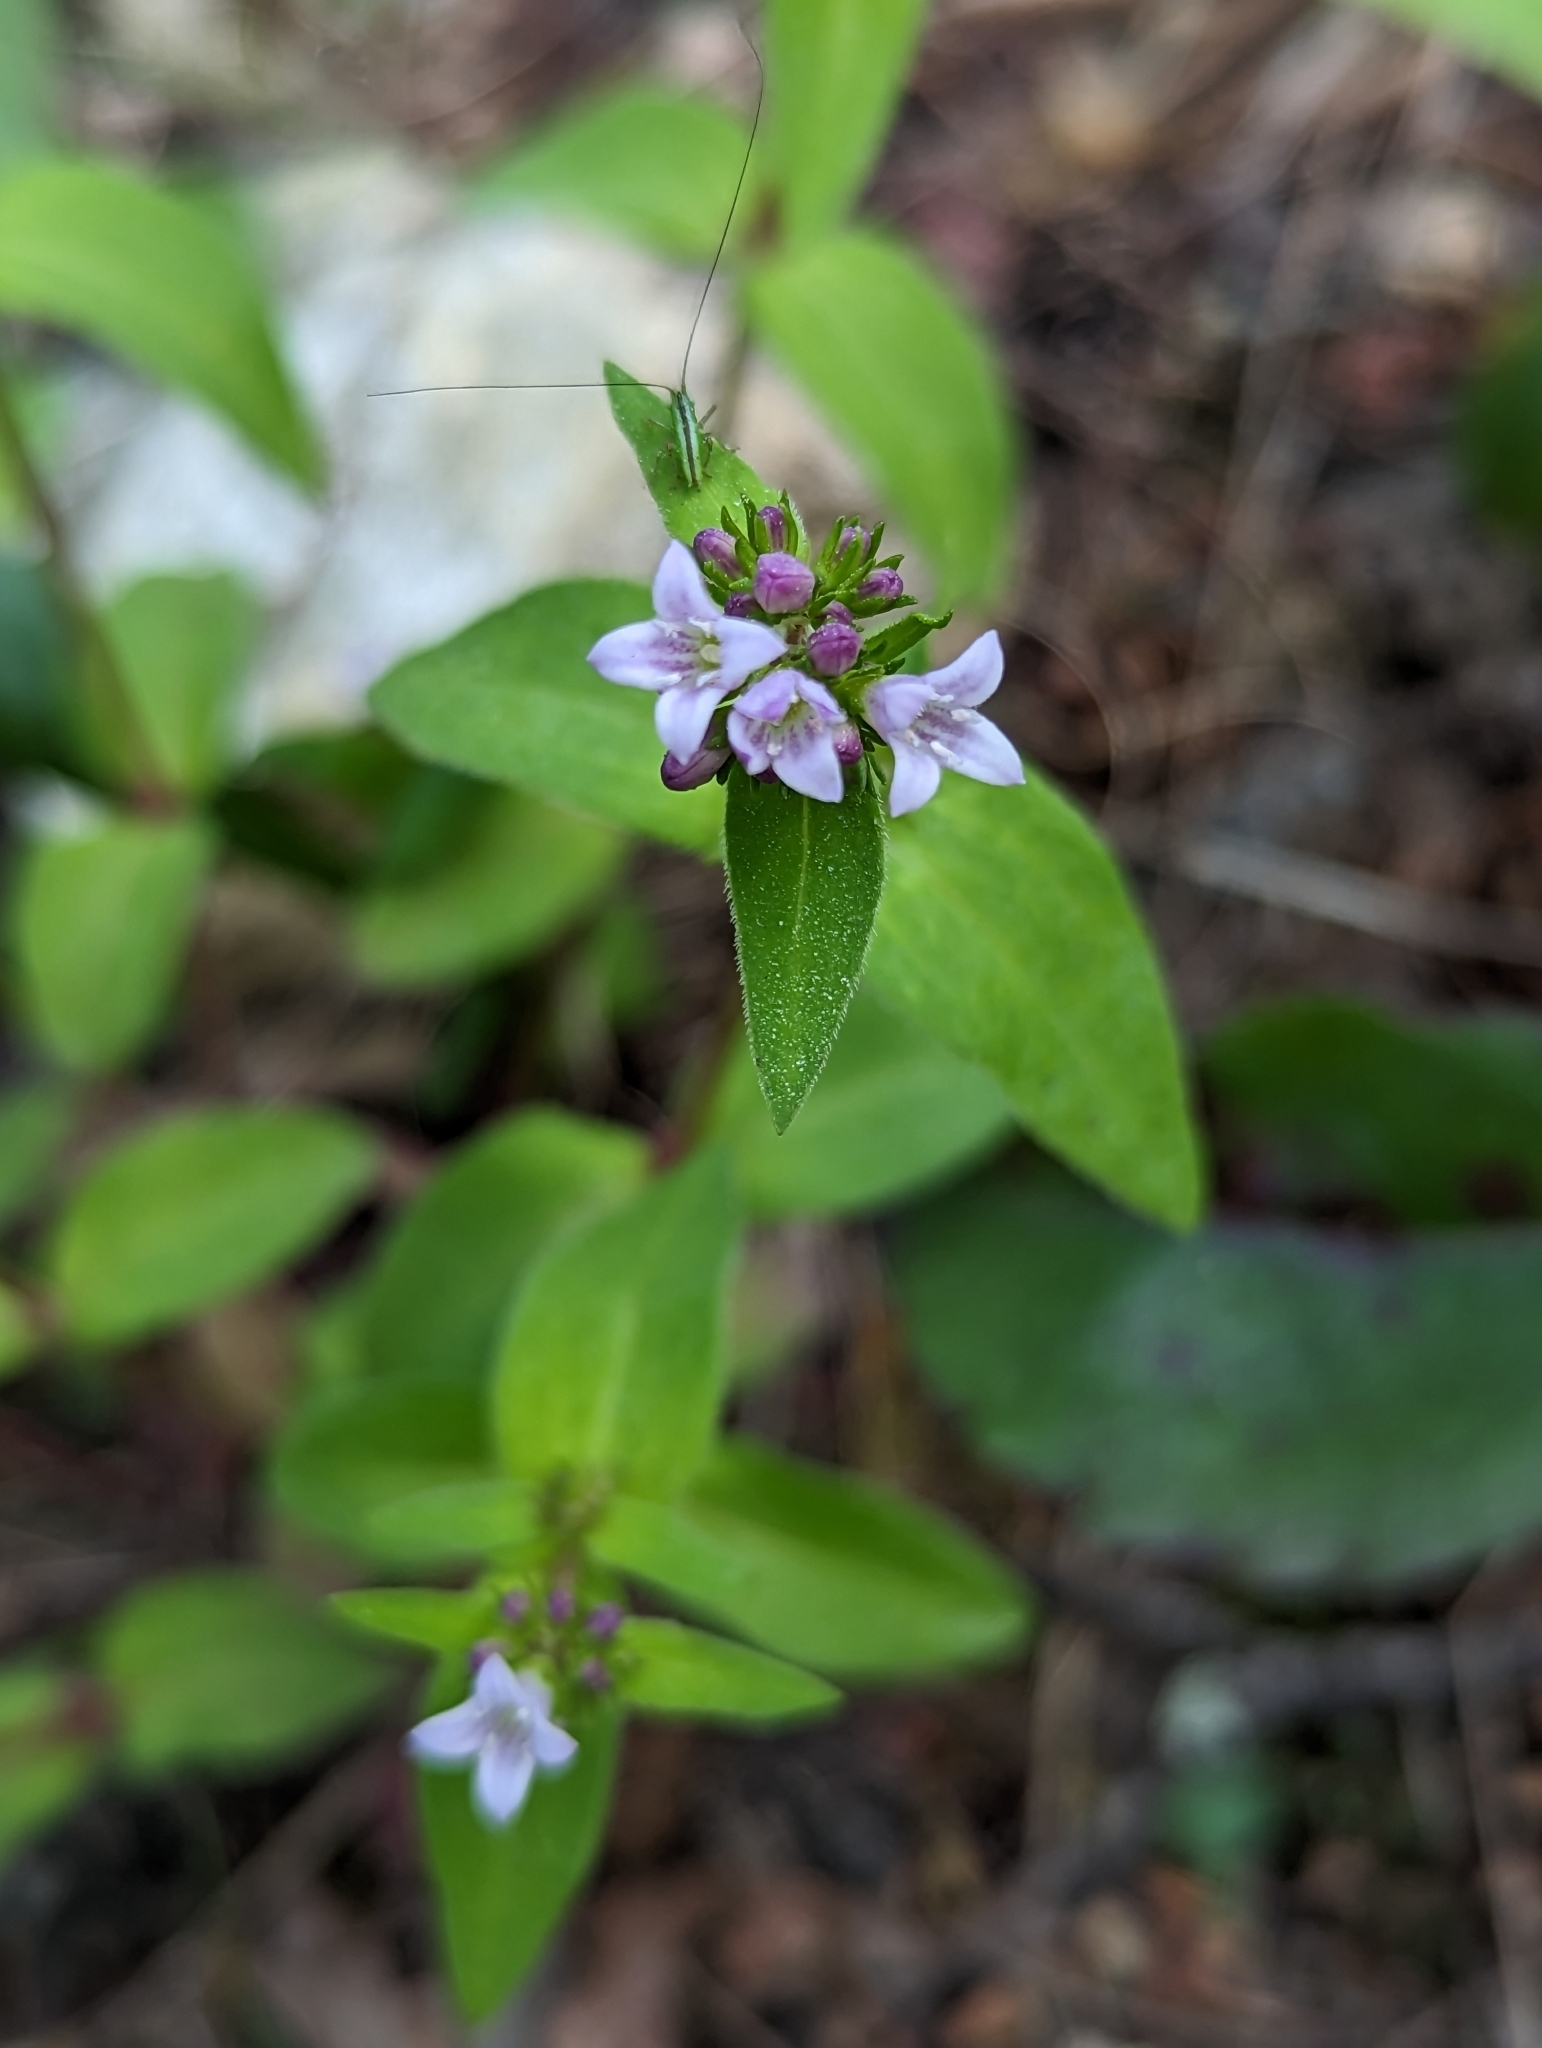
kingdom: Plantae
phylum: Tracheophyta
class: Magnoliopsida
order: Gentianales
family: Rubiaceae
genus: Houstonia
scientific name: Houstonia purpurea
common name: Summer bluet
